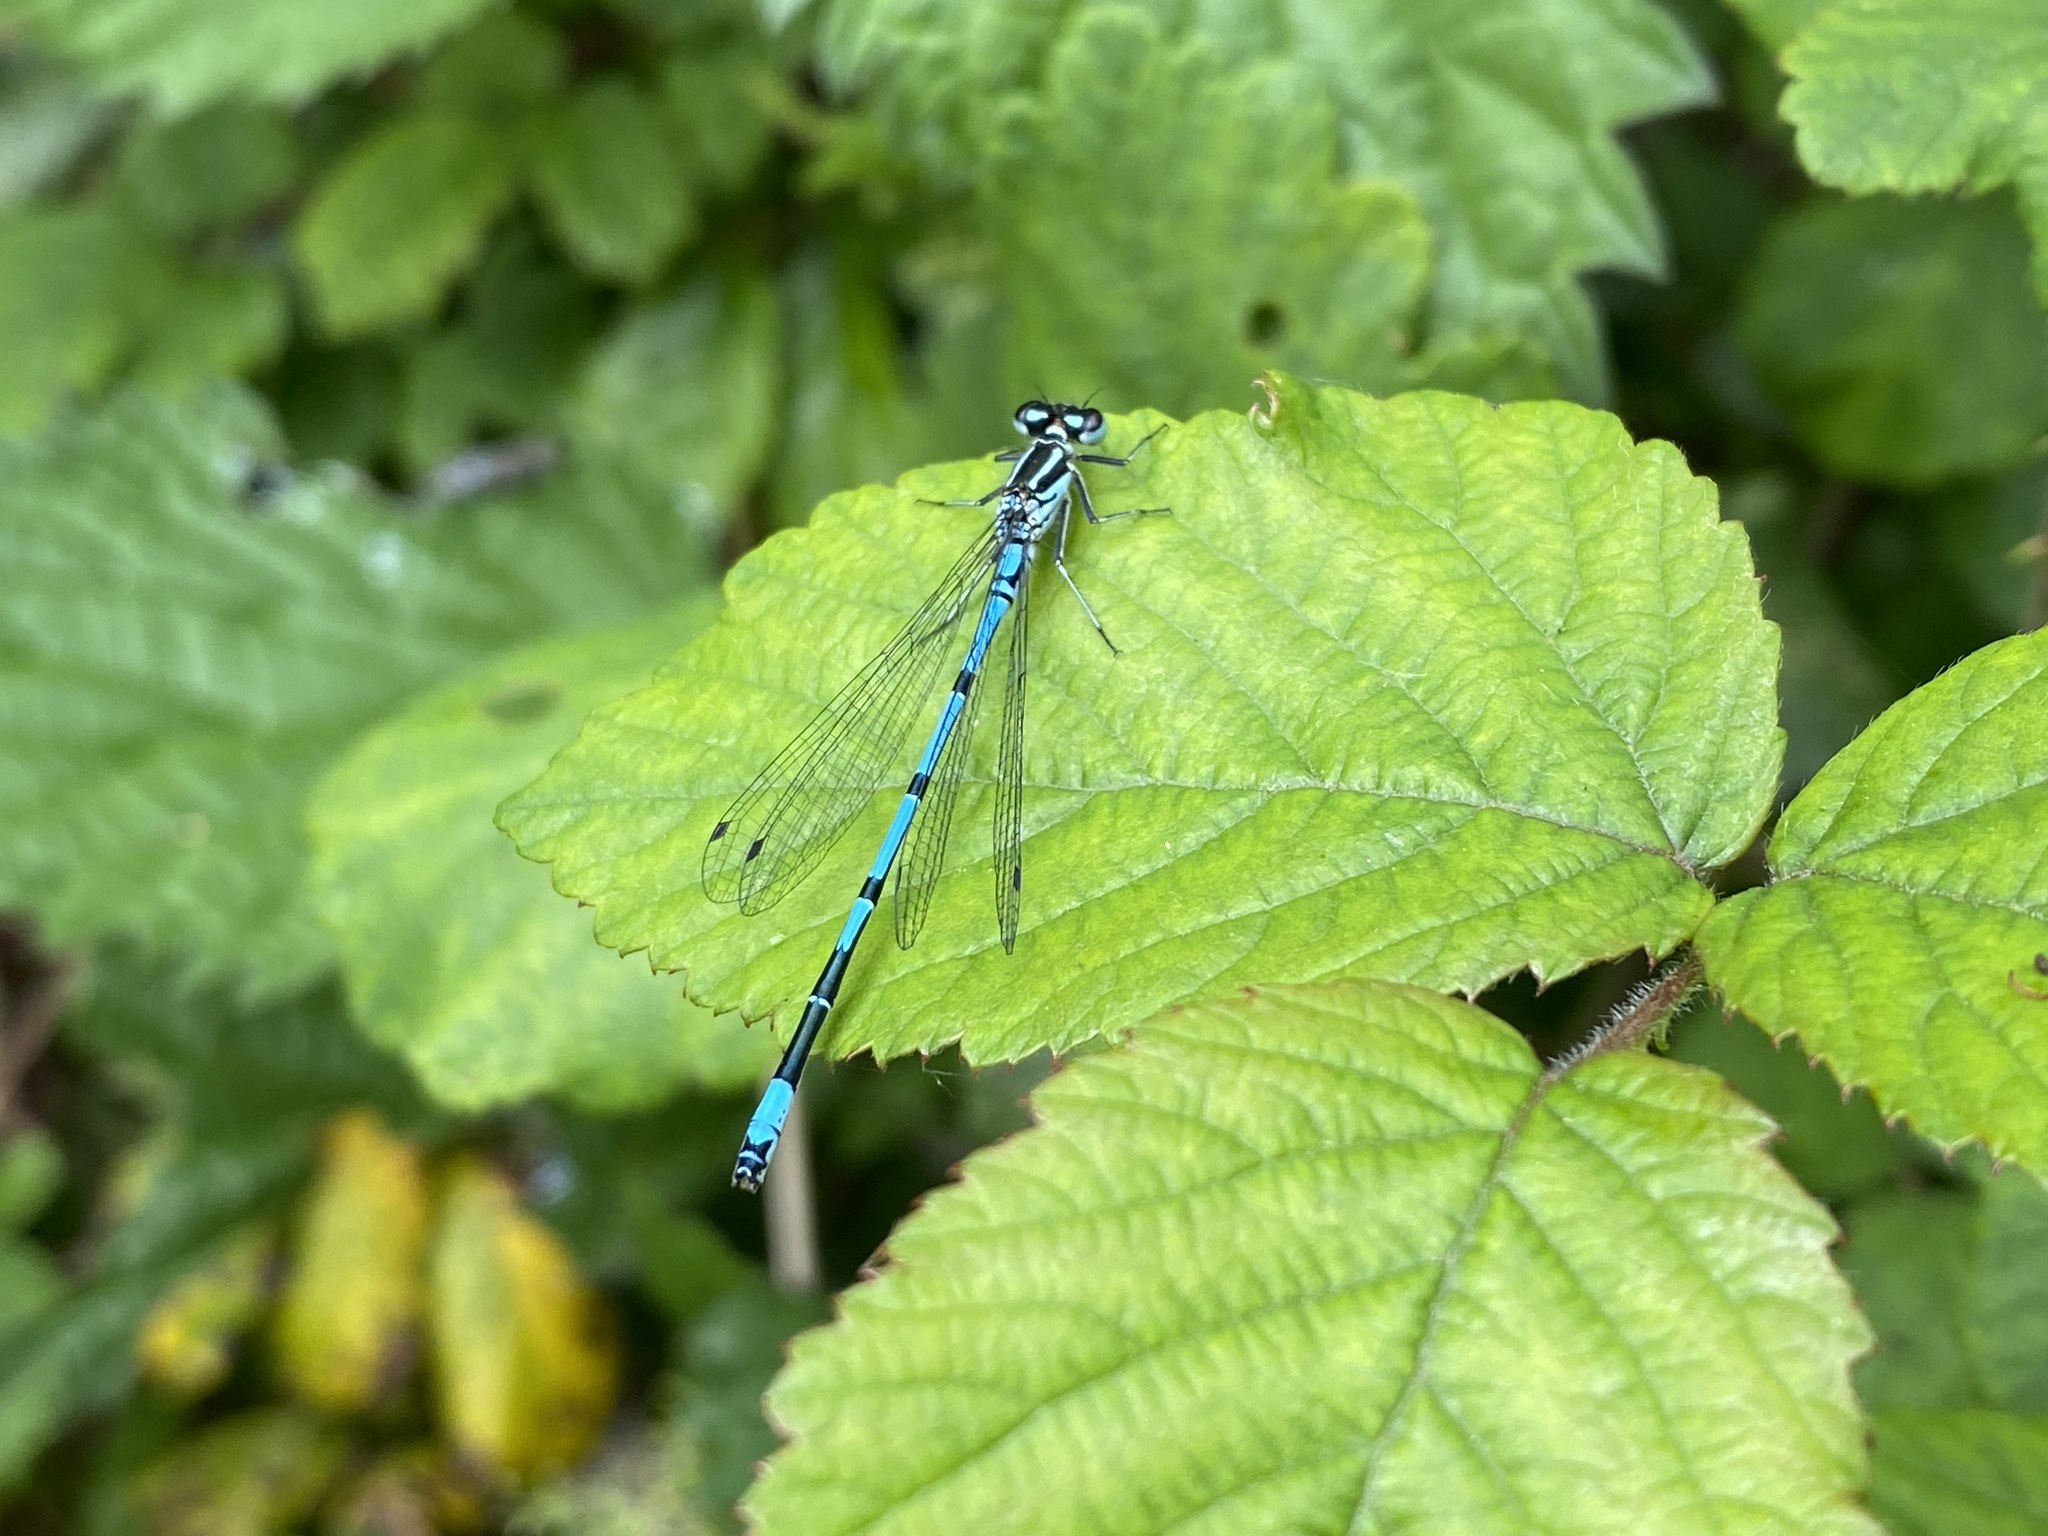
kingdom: Animalia
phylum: Arthropoda
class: Insecta
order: Odonata
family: Coenagrionidae
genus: Coenagrion
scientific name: Coenagrion puella
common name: Azure damselfly
